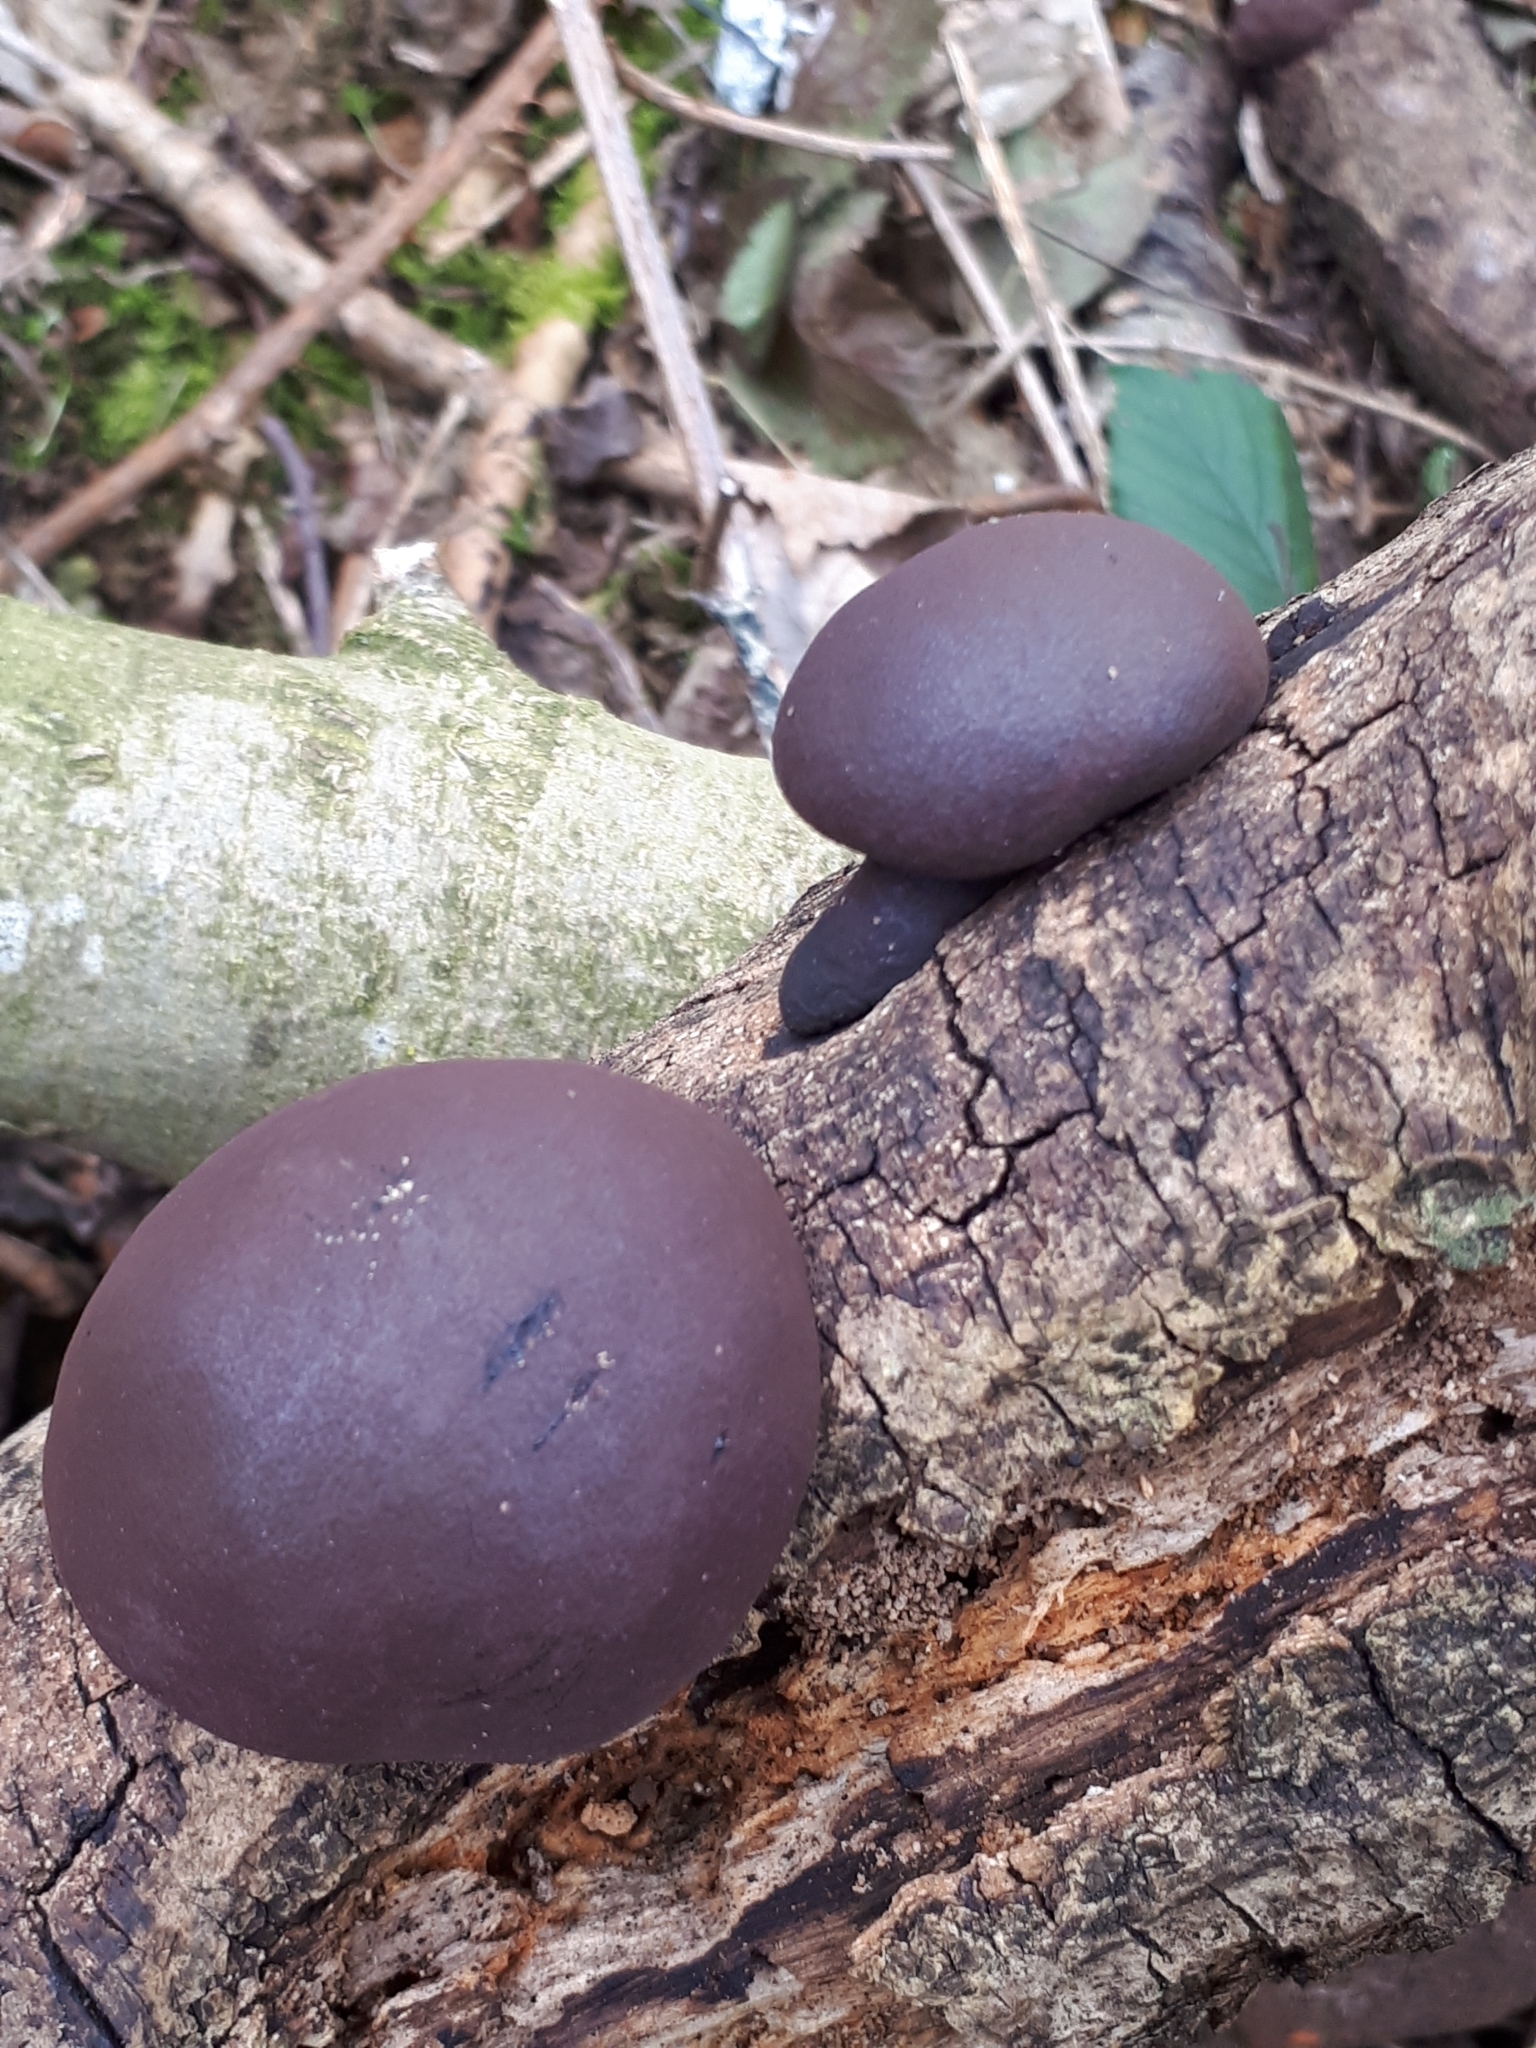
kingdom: Fungi
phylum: Ascomycota
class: Sordariomycetes
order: Xylariales
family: Hypoxylaceae
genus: Daldinia
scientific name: Daldinia concentrica
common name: Cramp balls
